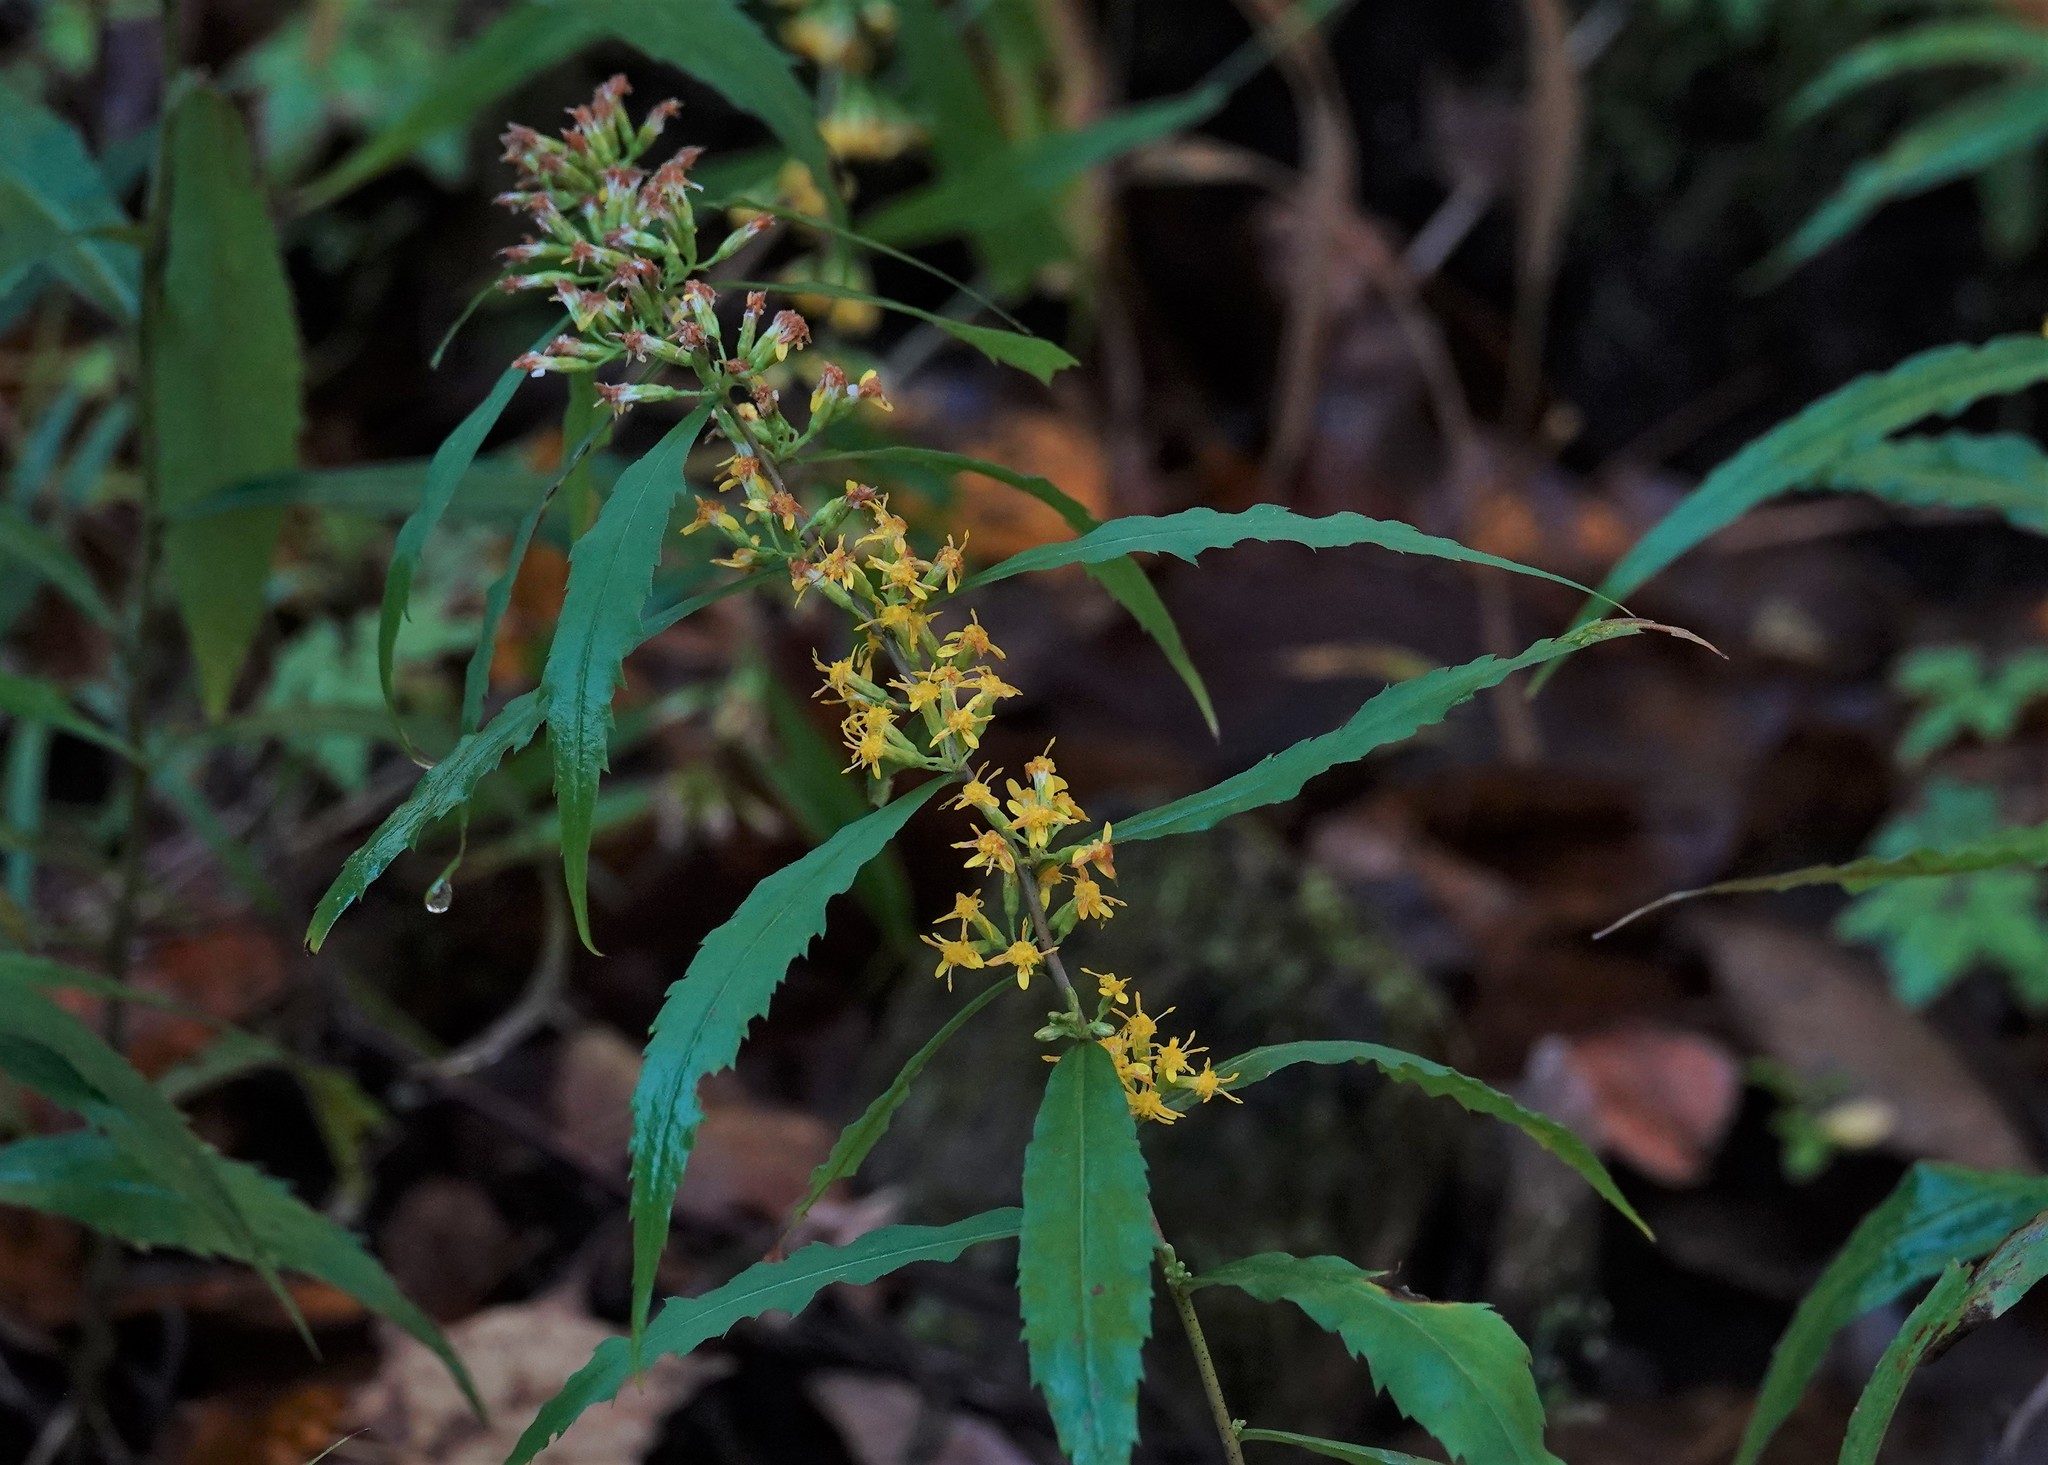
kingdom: Plantae
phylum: Tracheophyta
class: Magnoliopsida
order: Asterales
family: Asteraceae
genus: Solidago
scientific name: Solidago caesia
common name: Woodland goldenrod
